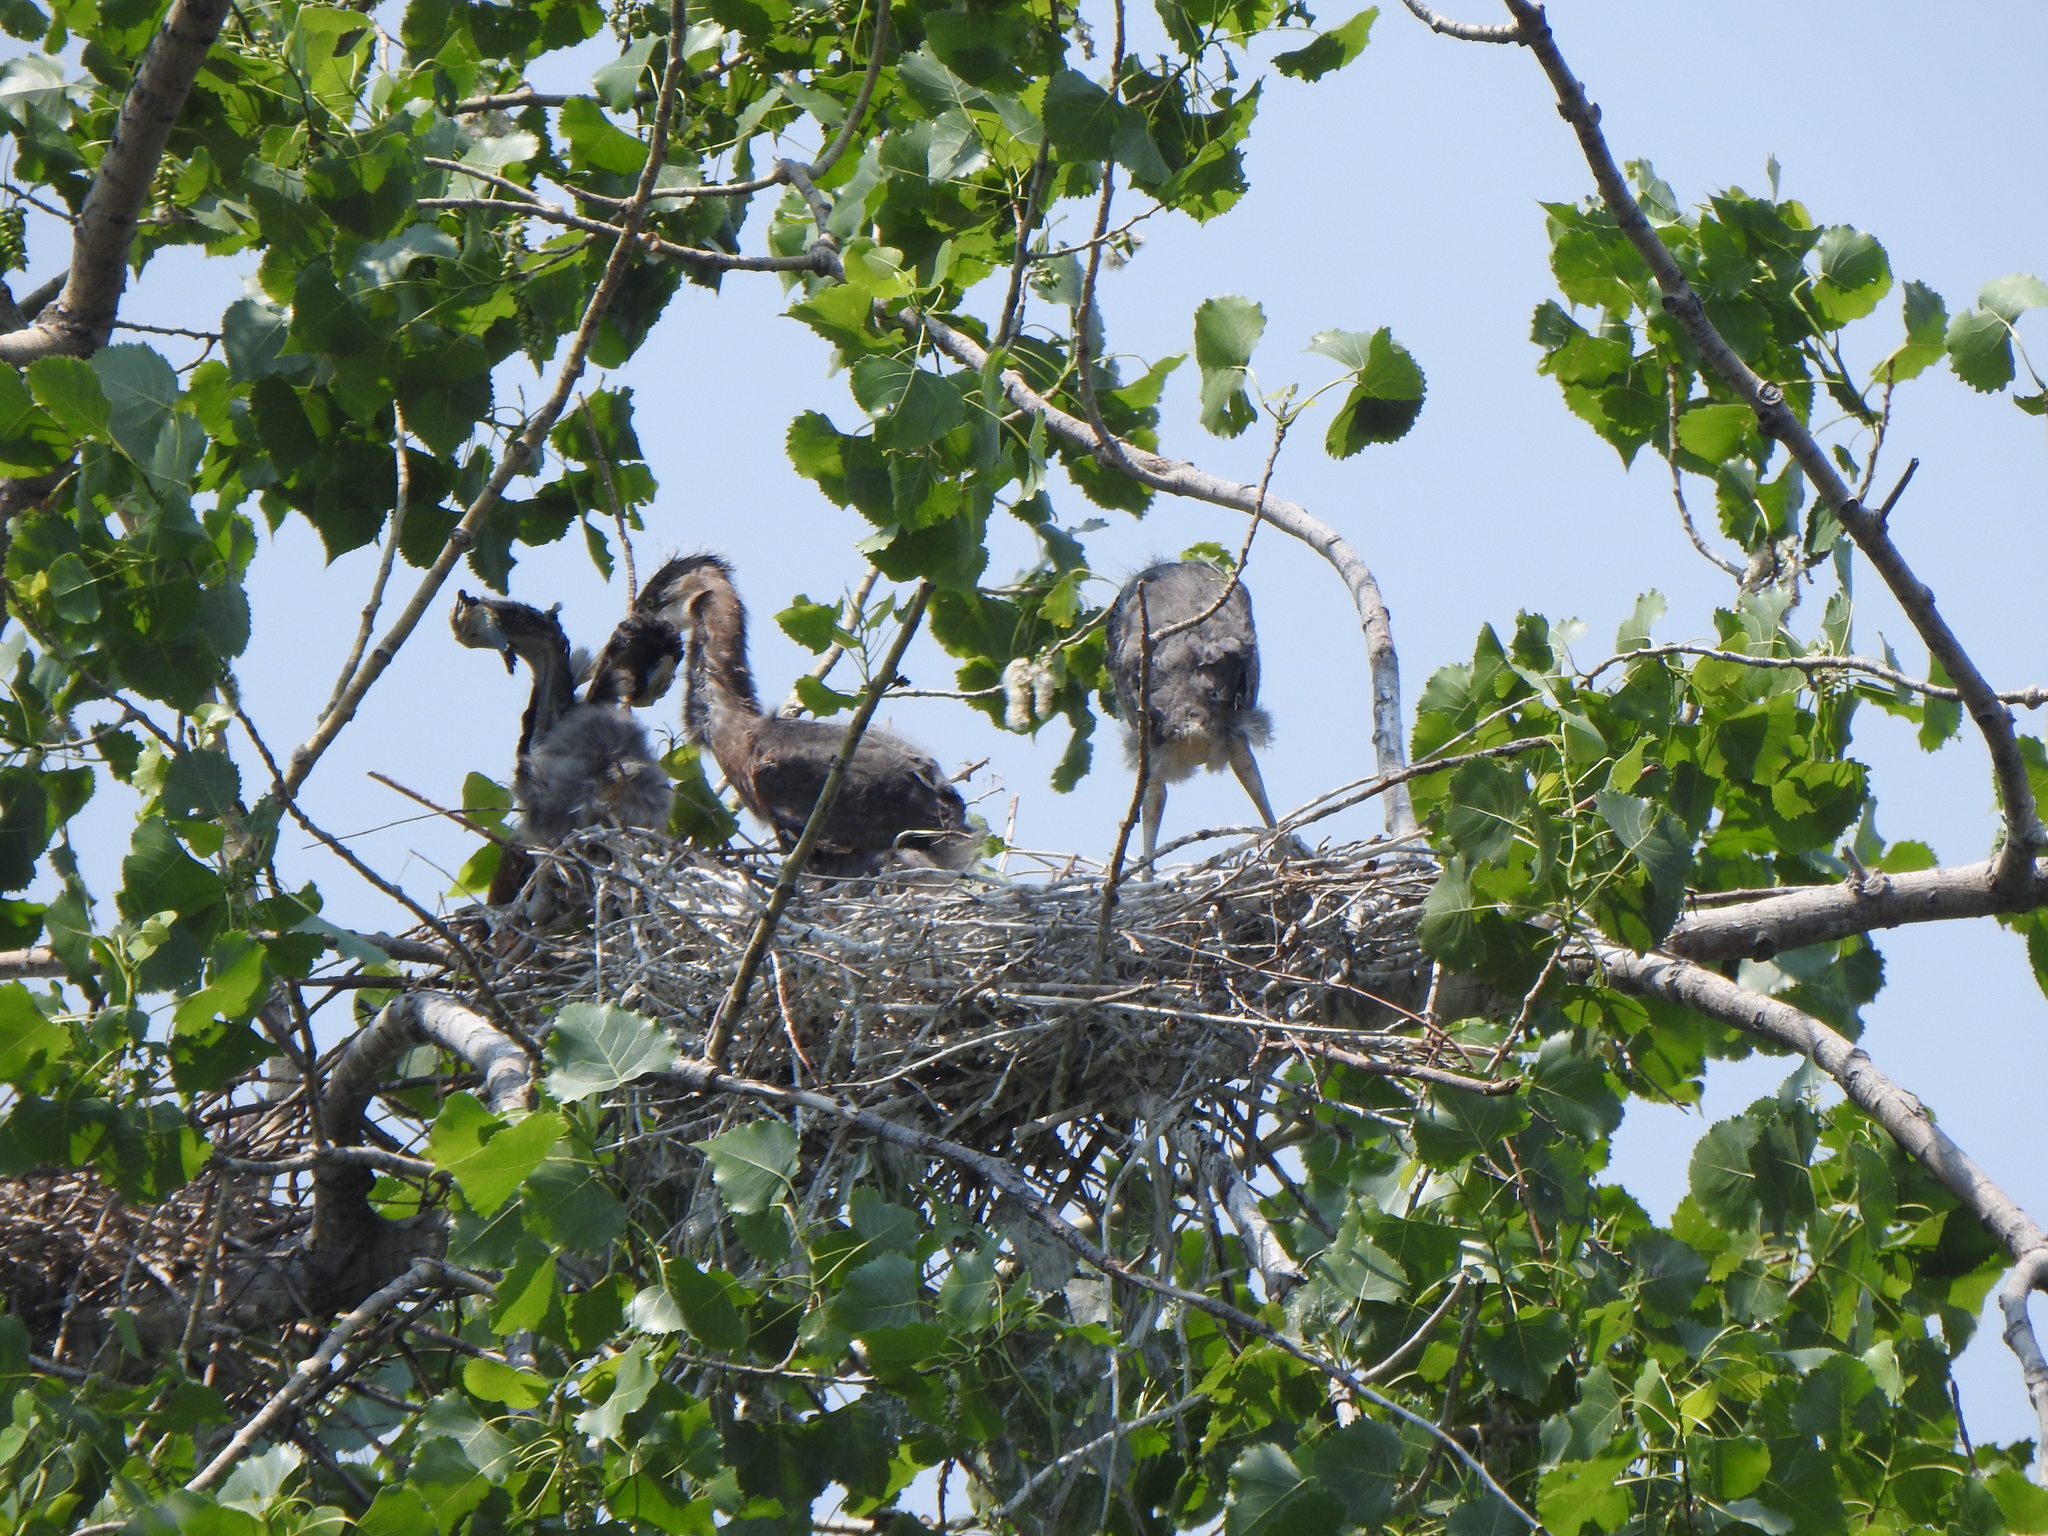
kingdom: Animalia
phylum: Chordata
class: Aves
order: Pelecaniformes
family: Ardeidae
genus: Ardea
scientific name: Ardea herodias
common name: Great blue heron
